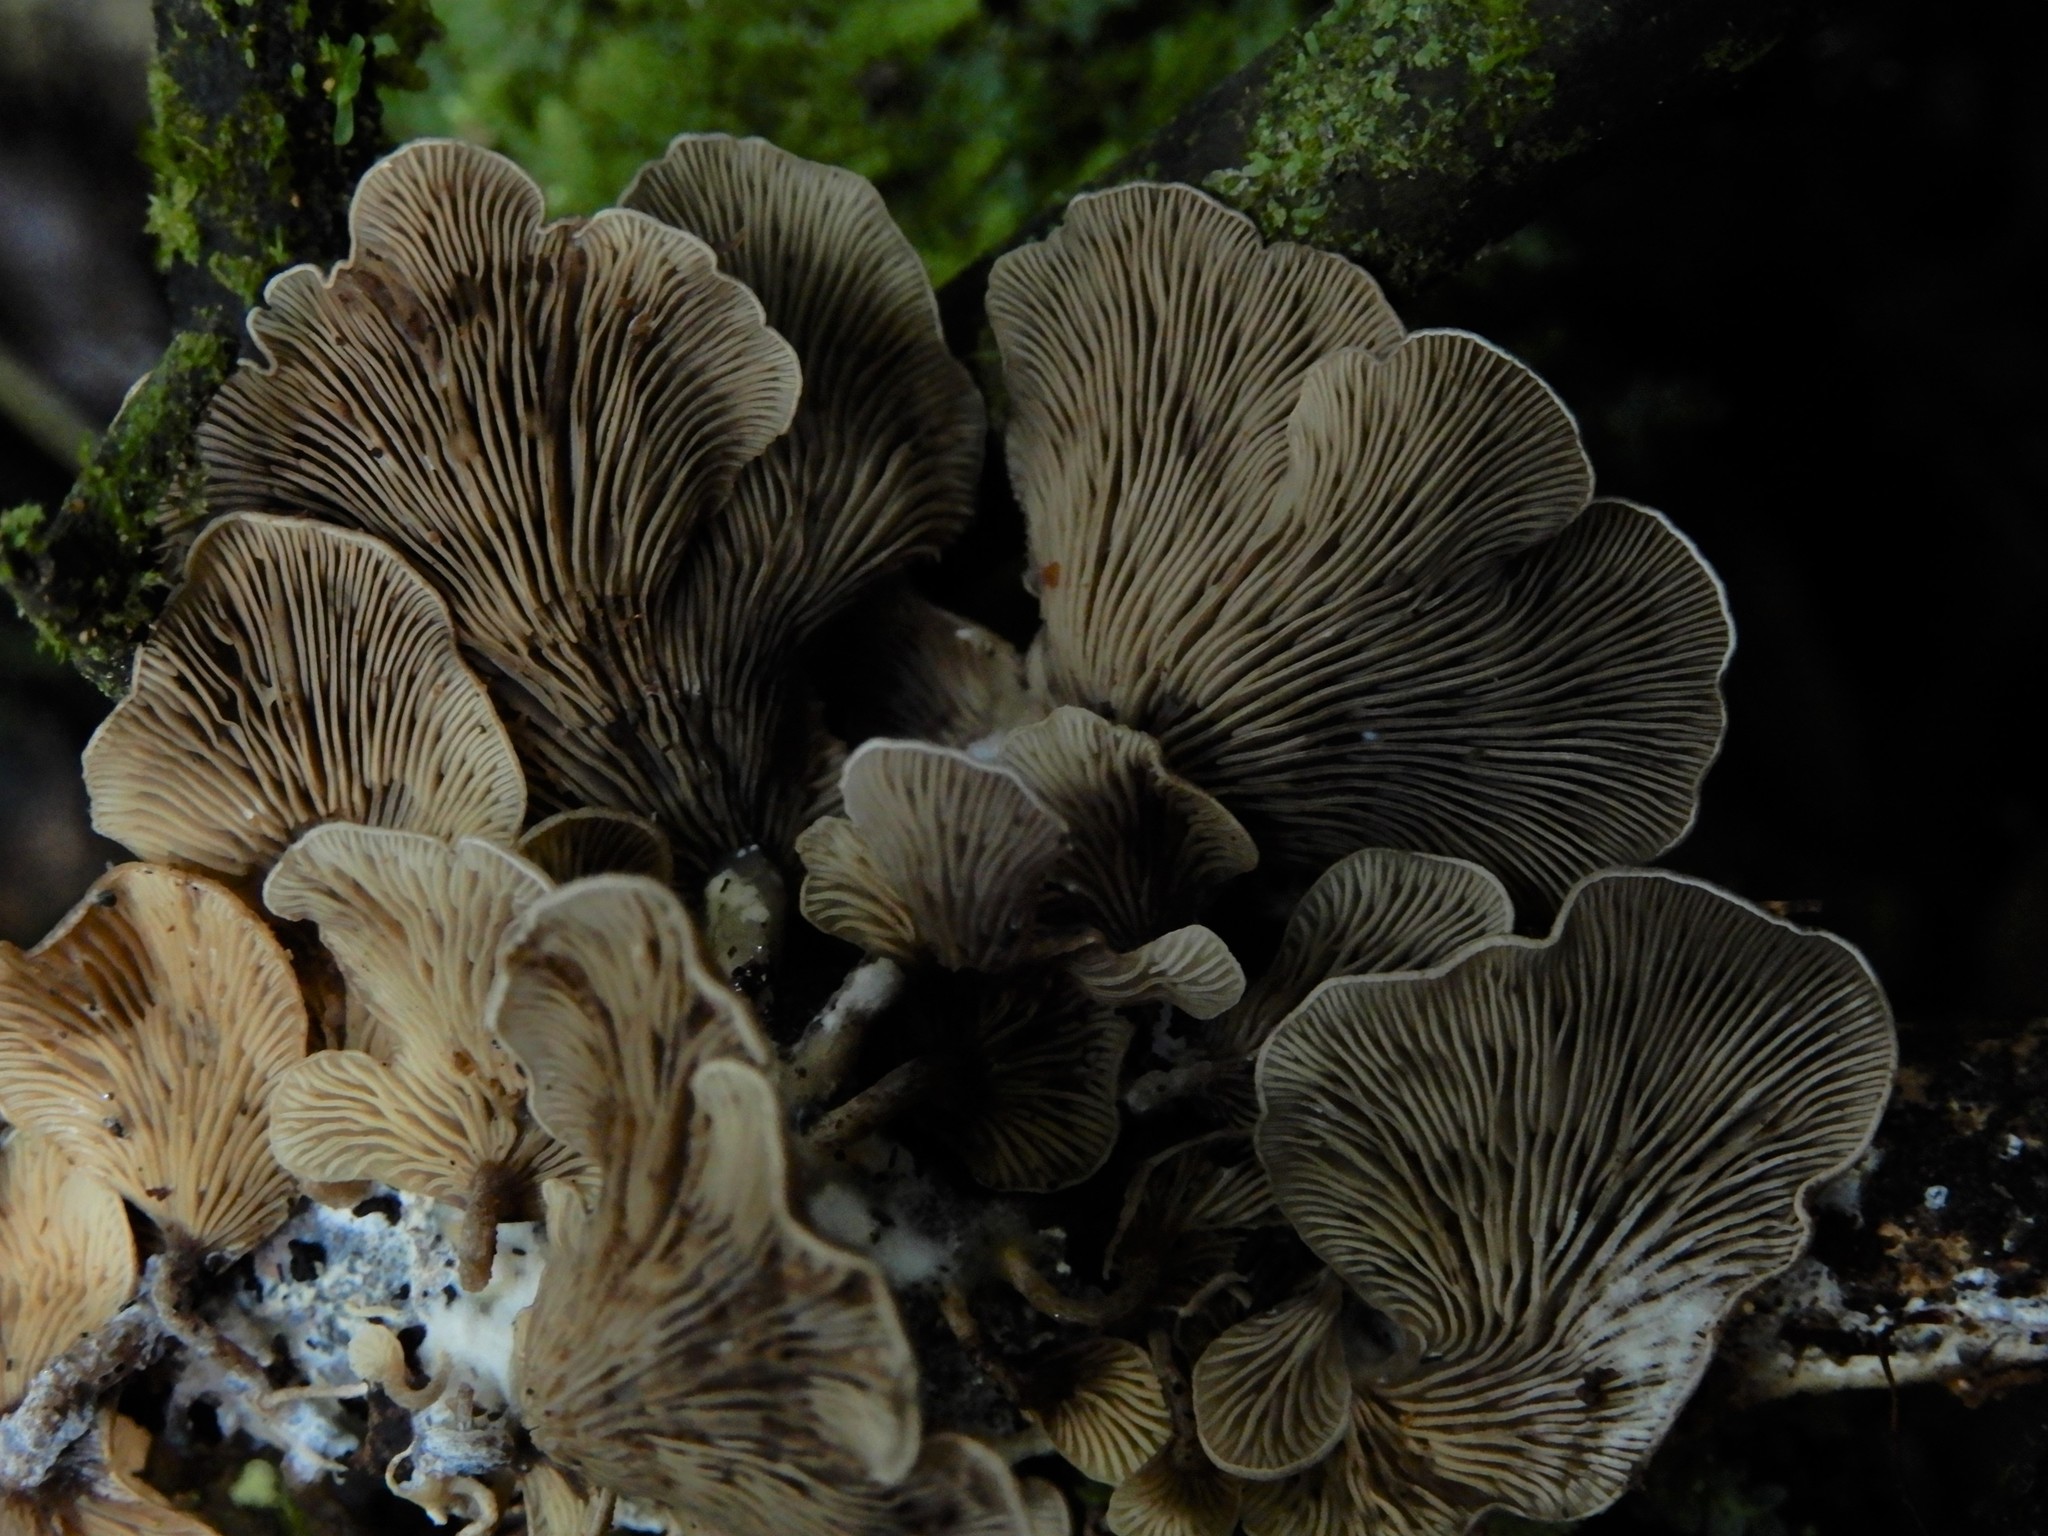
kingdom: Fungi
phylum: Basidiomycota
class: Agaricomycetes
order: Agaricales
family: Tricholomataceae
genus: Rhizocybe
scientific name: Rhizocybe
